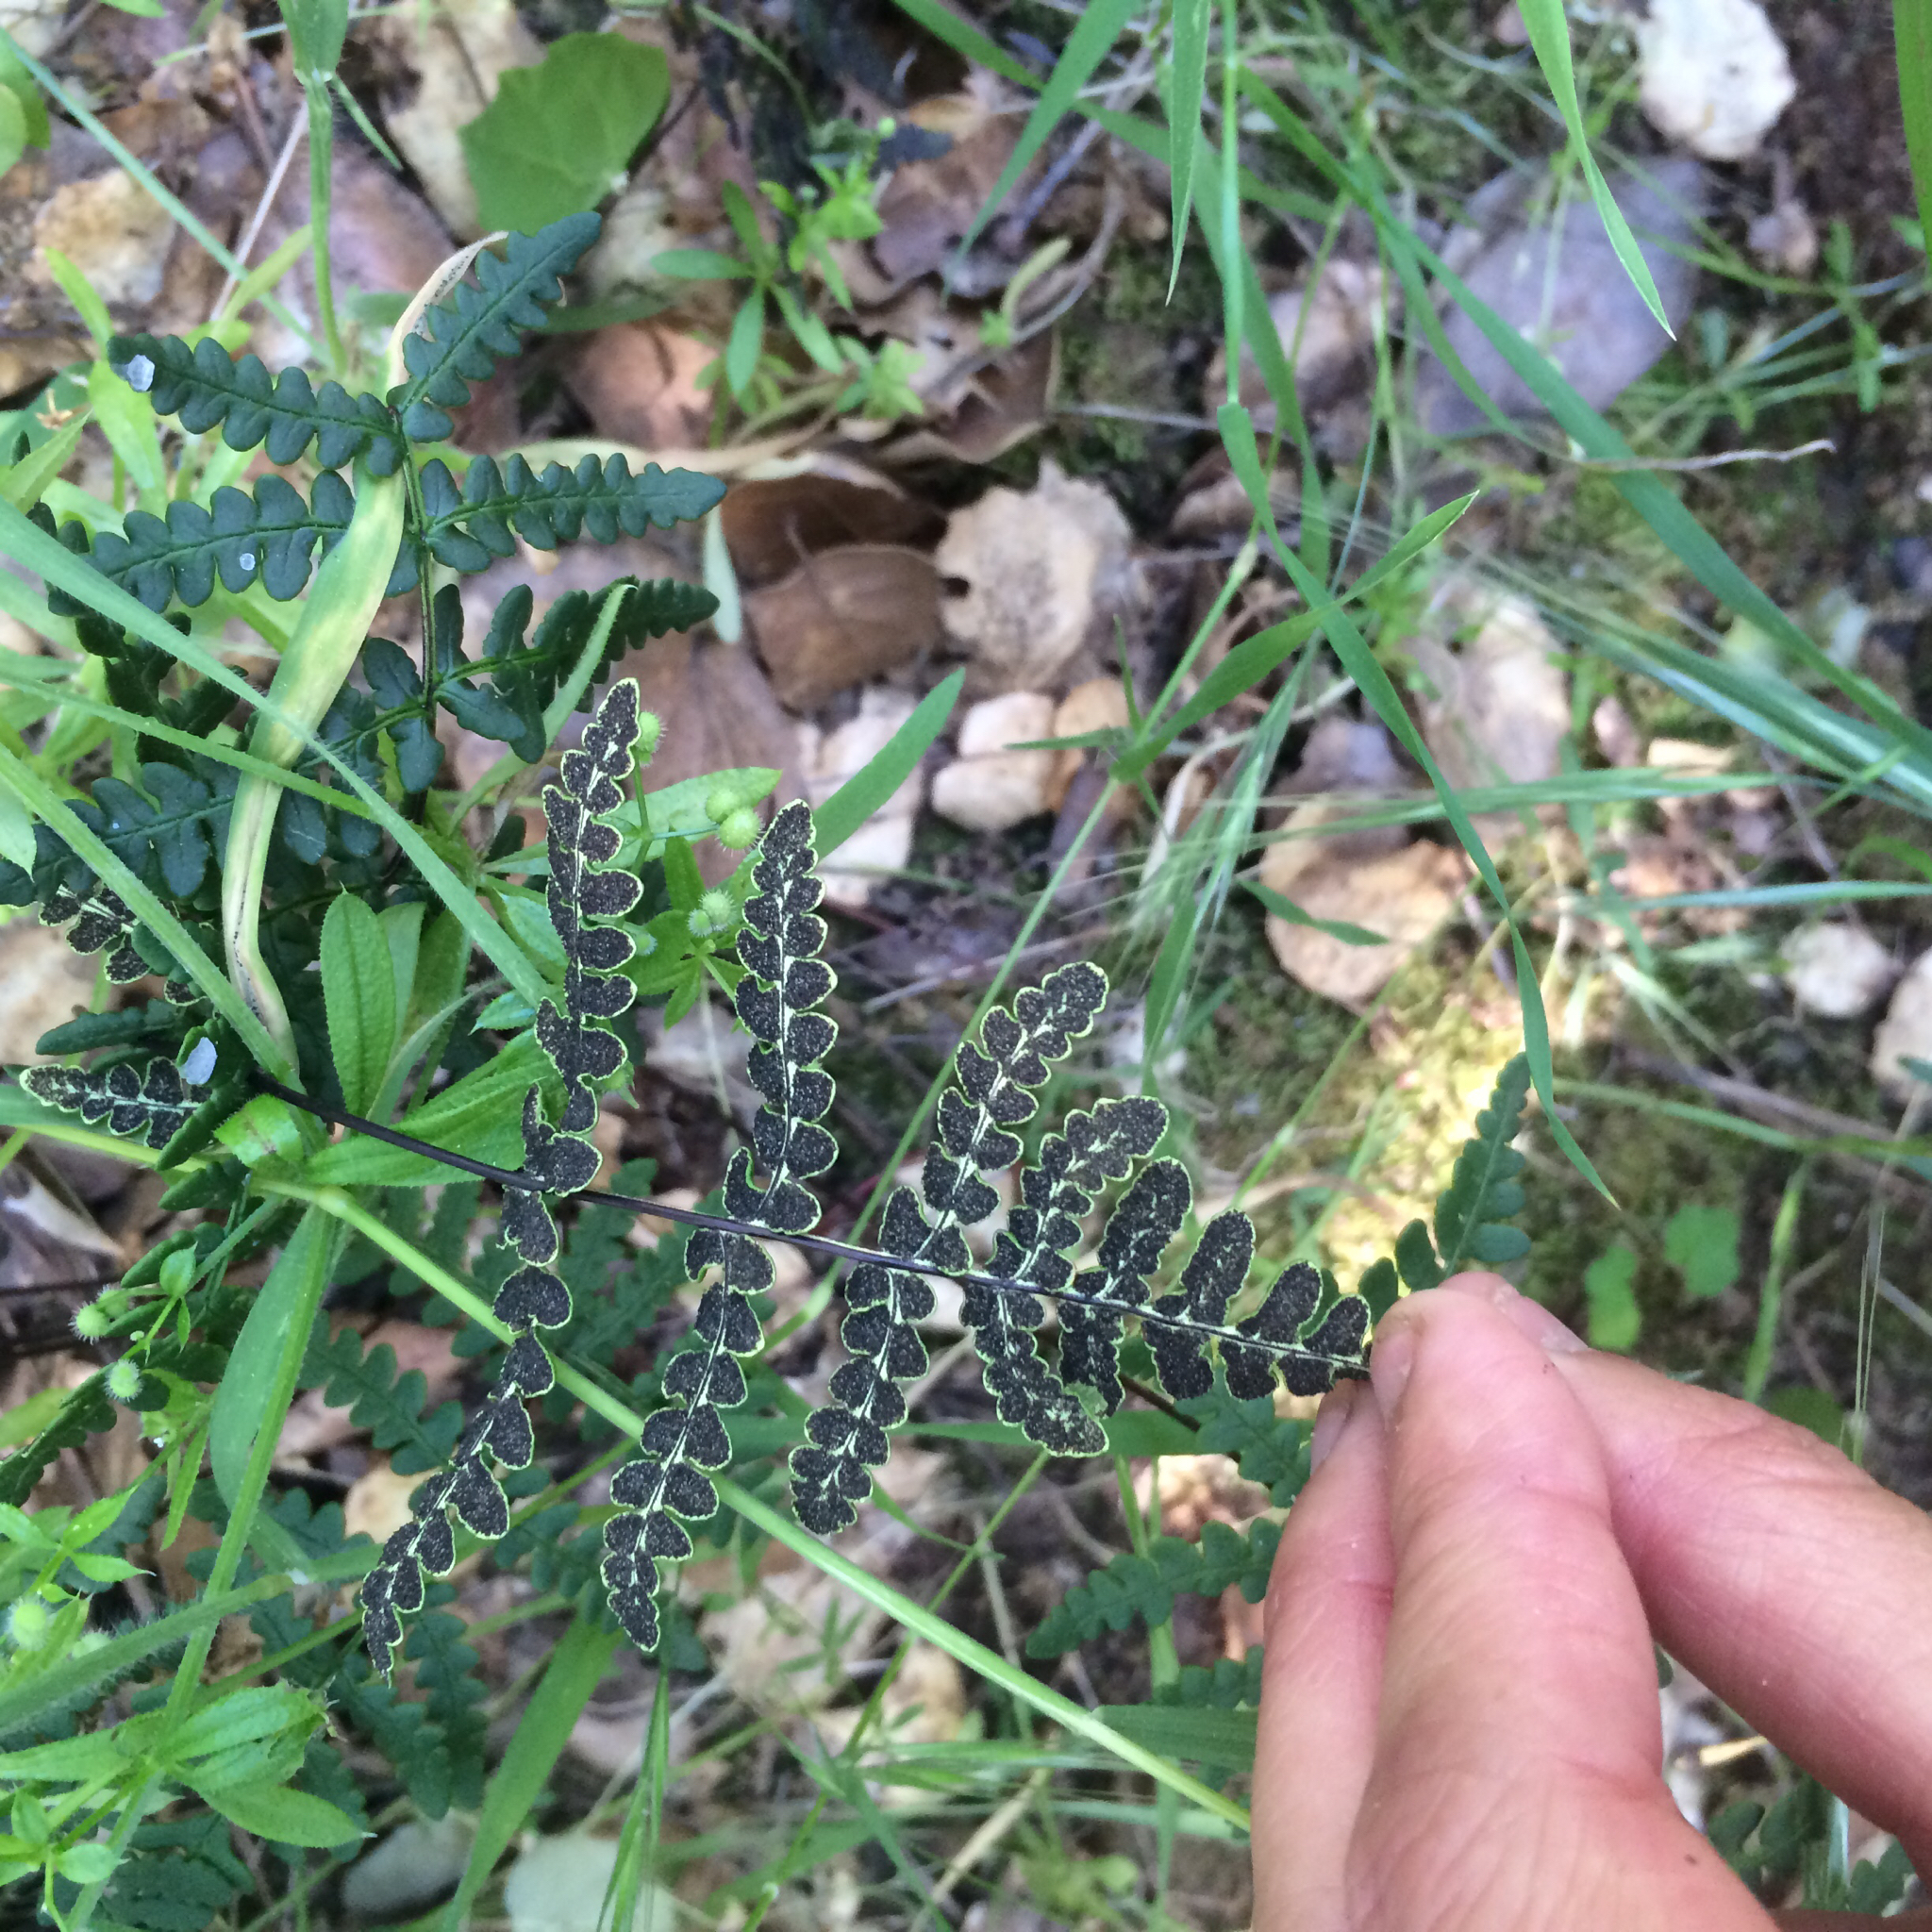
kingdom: Plantae
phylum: Tracheophyta
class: Polypodiopsida
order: Polypodiales
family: Pteridaceae
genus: Pentagramma
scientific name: Pentagramma triangularis
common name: Gold fern
